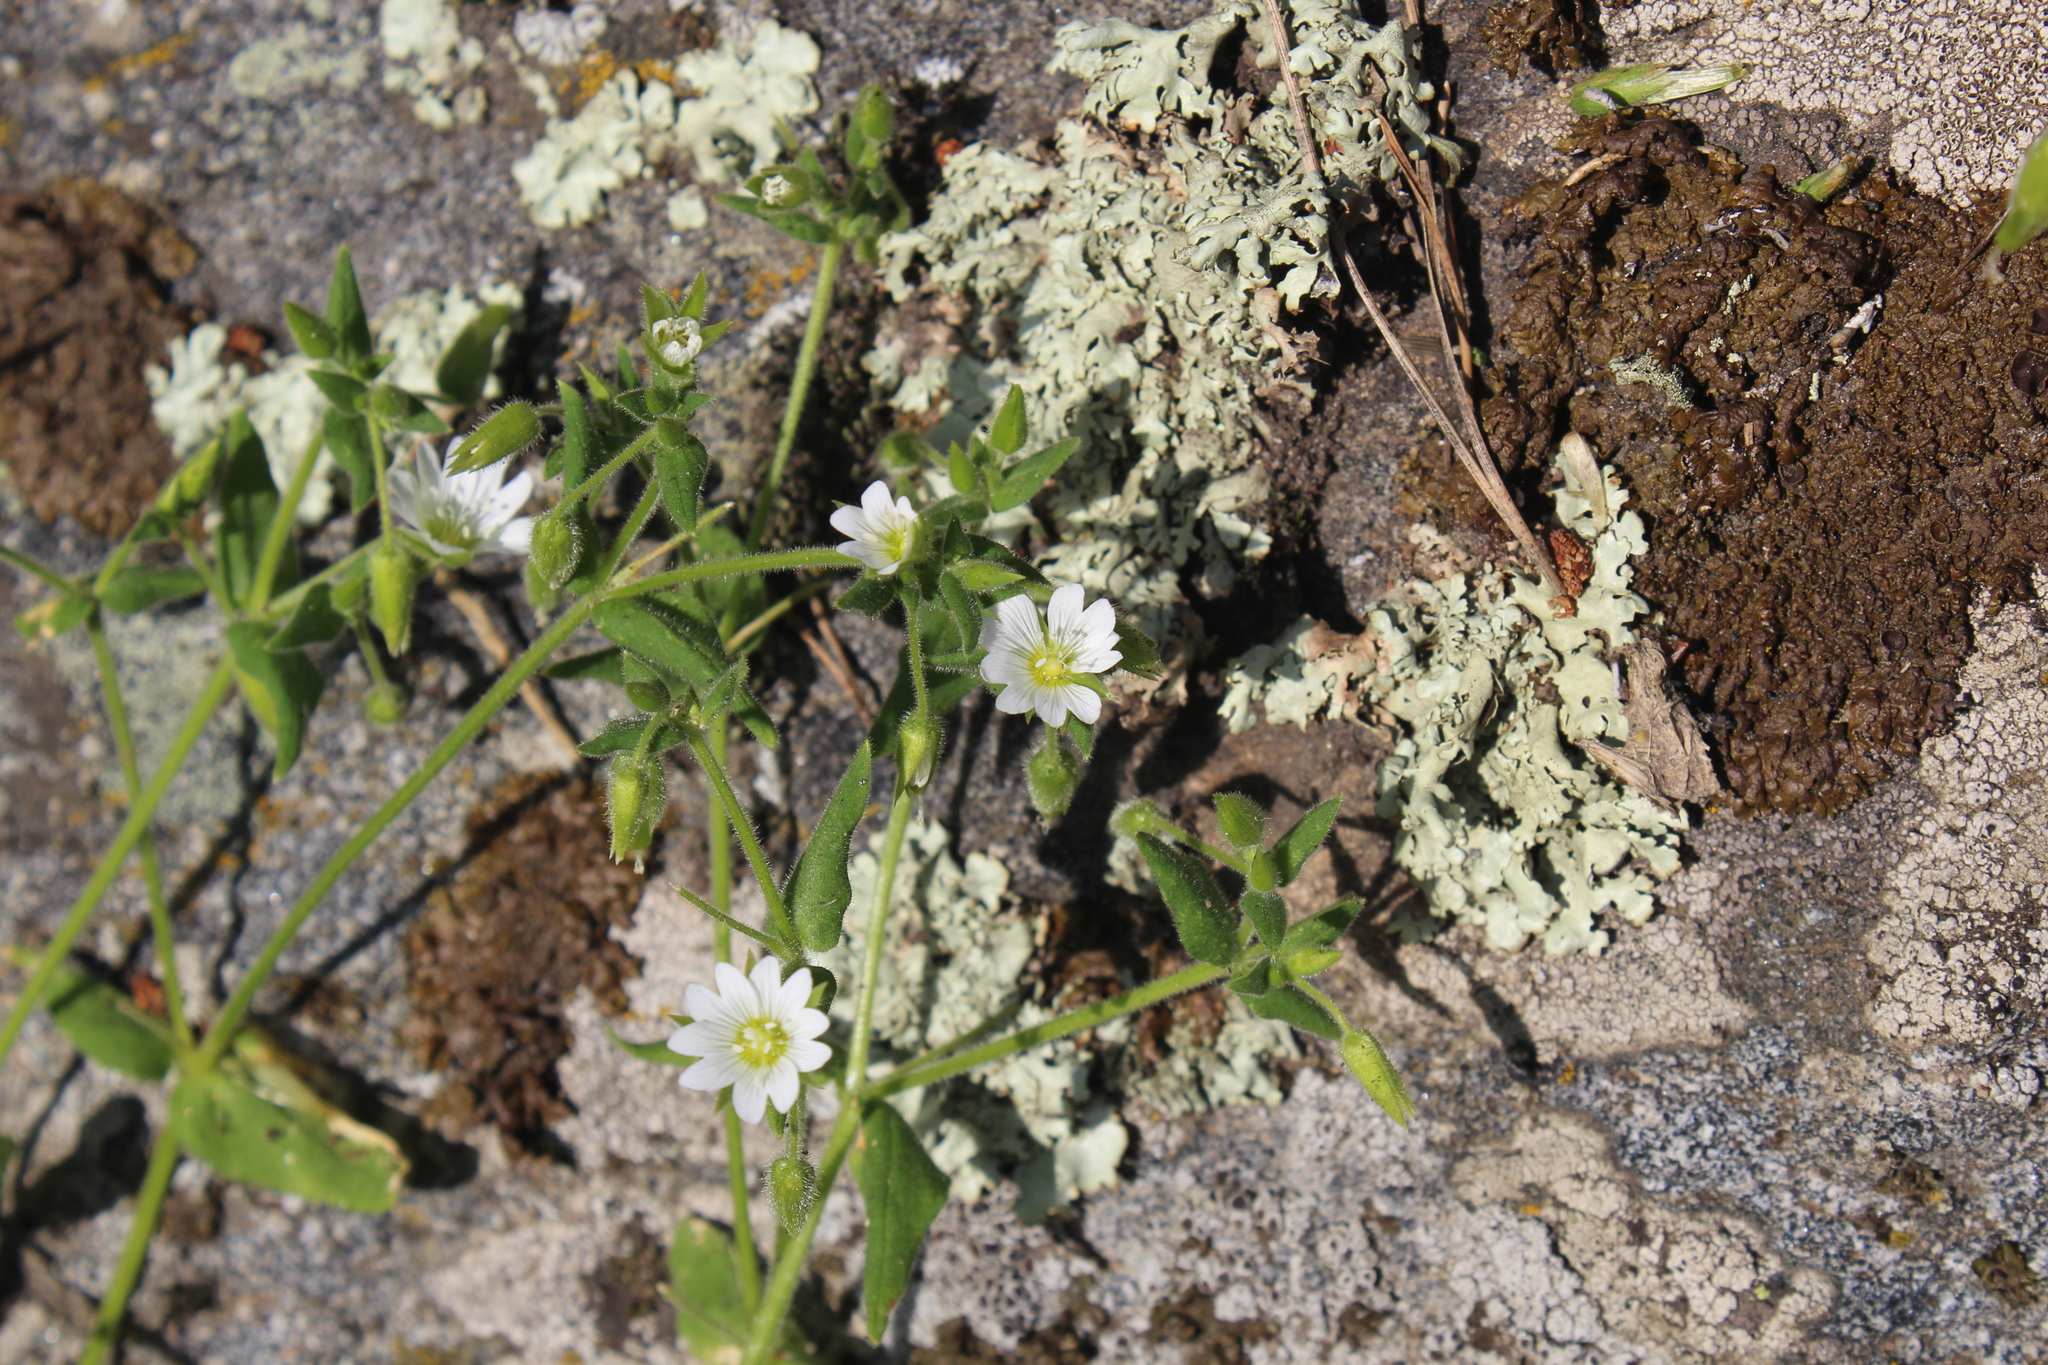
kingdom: Plantae
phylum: Tracheophyta
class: Magnoliopsida
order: Caryophyllales
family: Caryophyllaceae
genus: Cerastium
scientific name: Cerastium nemorale
